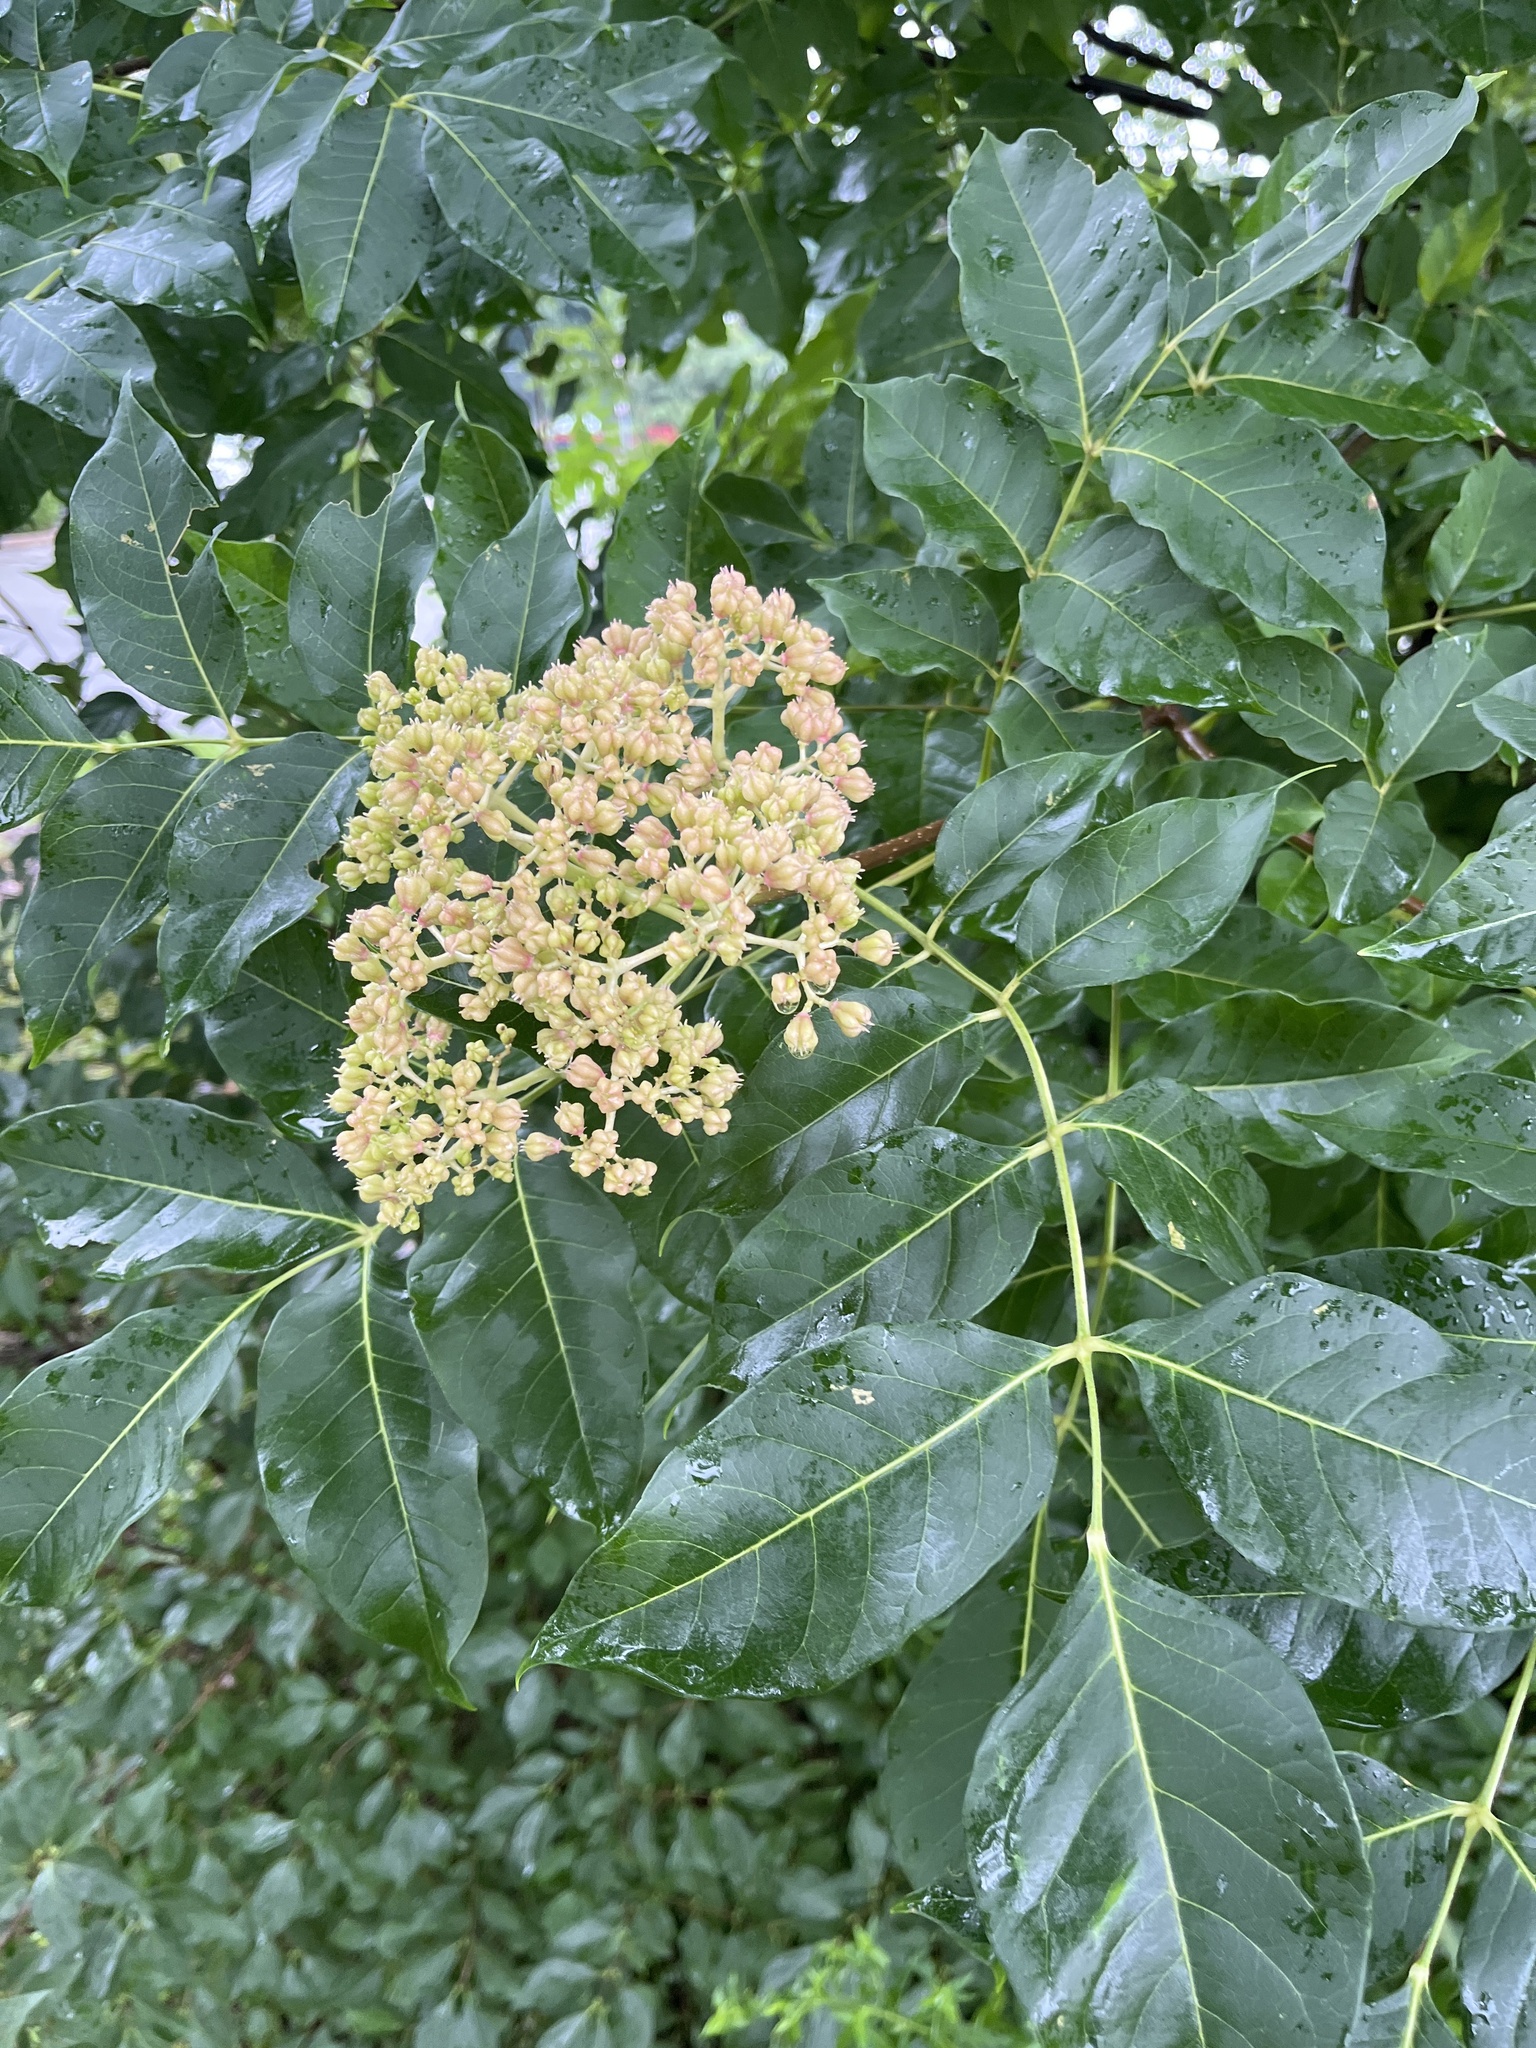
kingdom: Plantae
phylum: Tracheophyta
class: Magnoliopsida
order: Sapindales
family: Rutaceae
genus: Tetradium
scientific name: Tetradium daniellii
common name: Bee-bee tree
